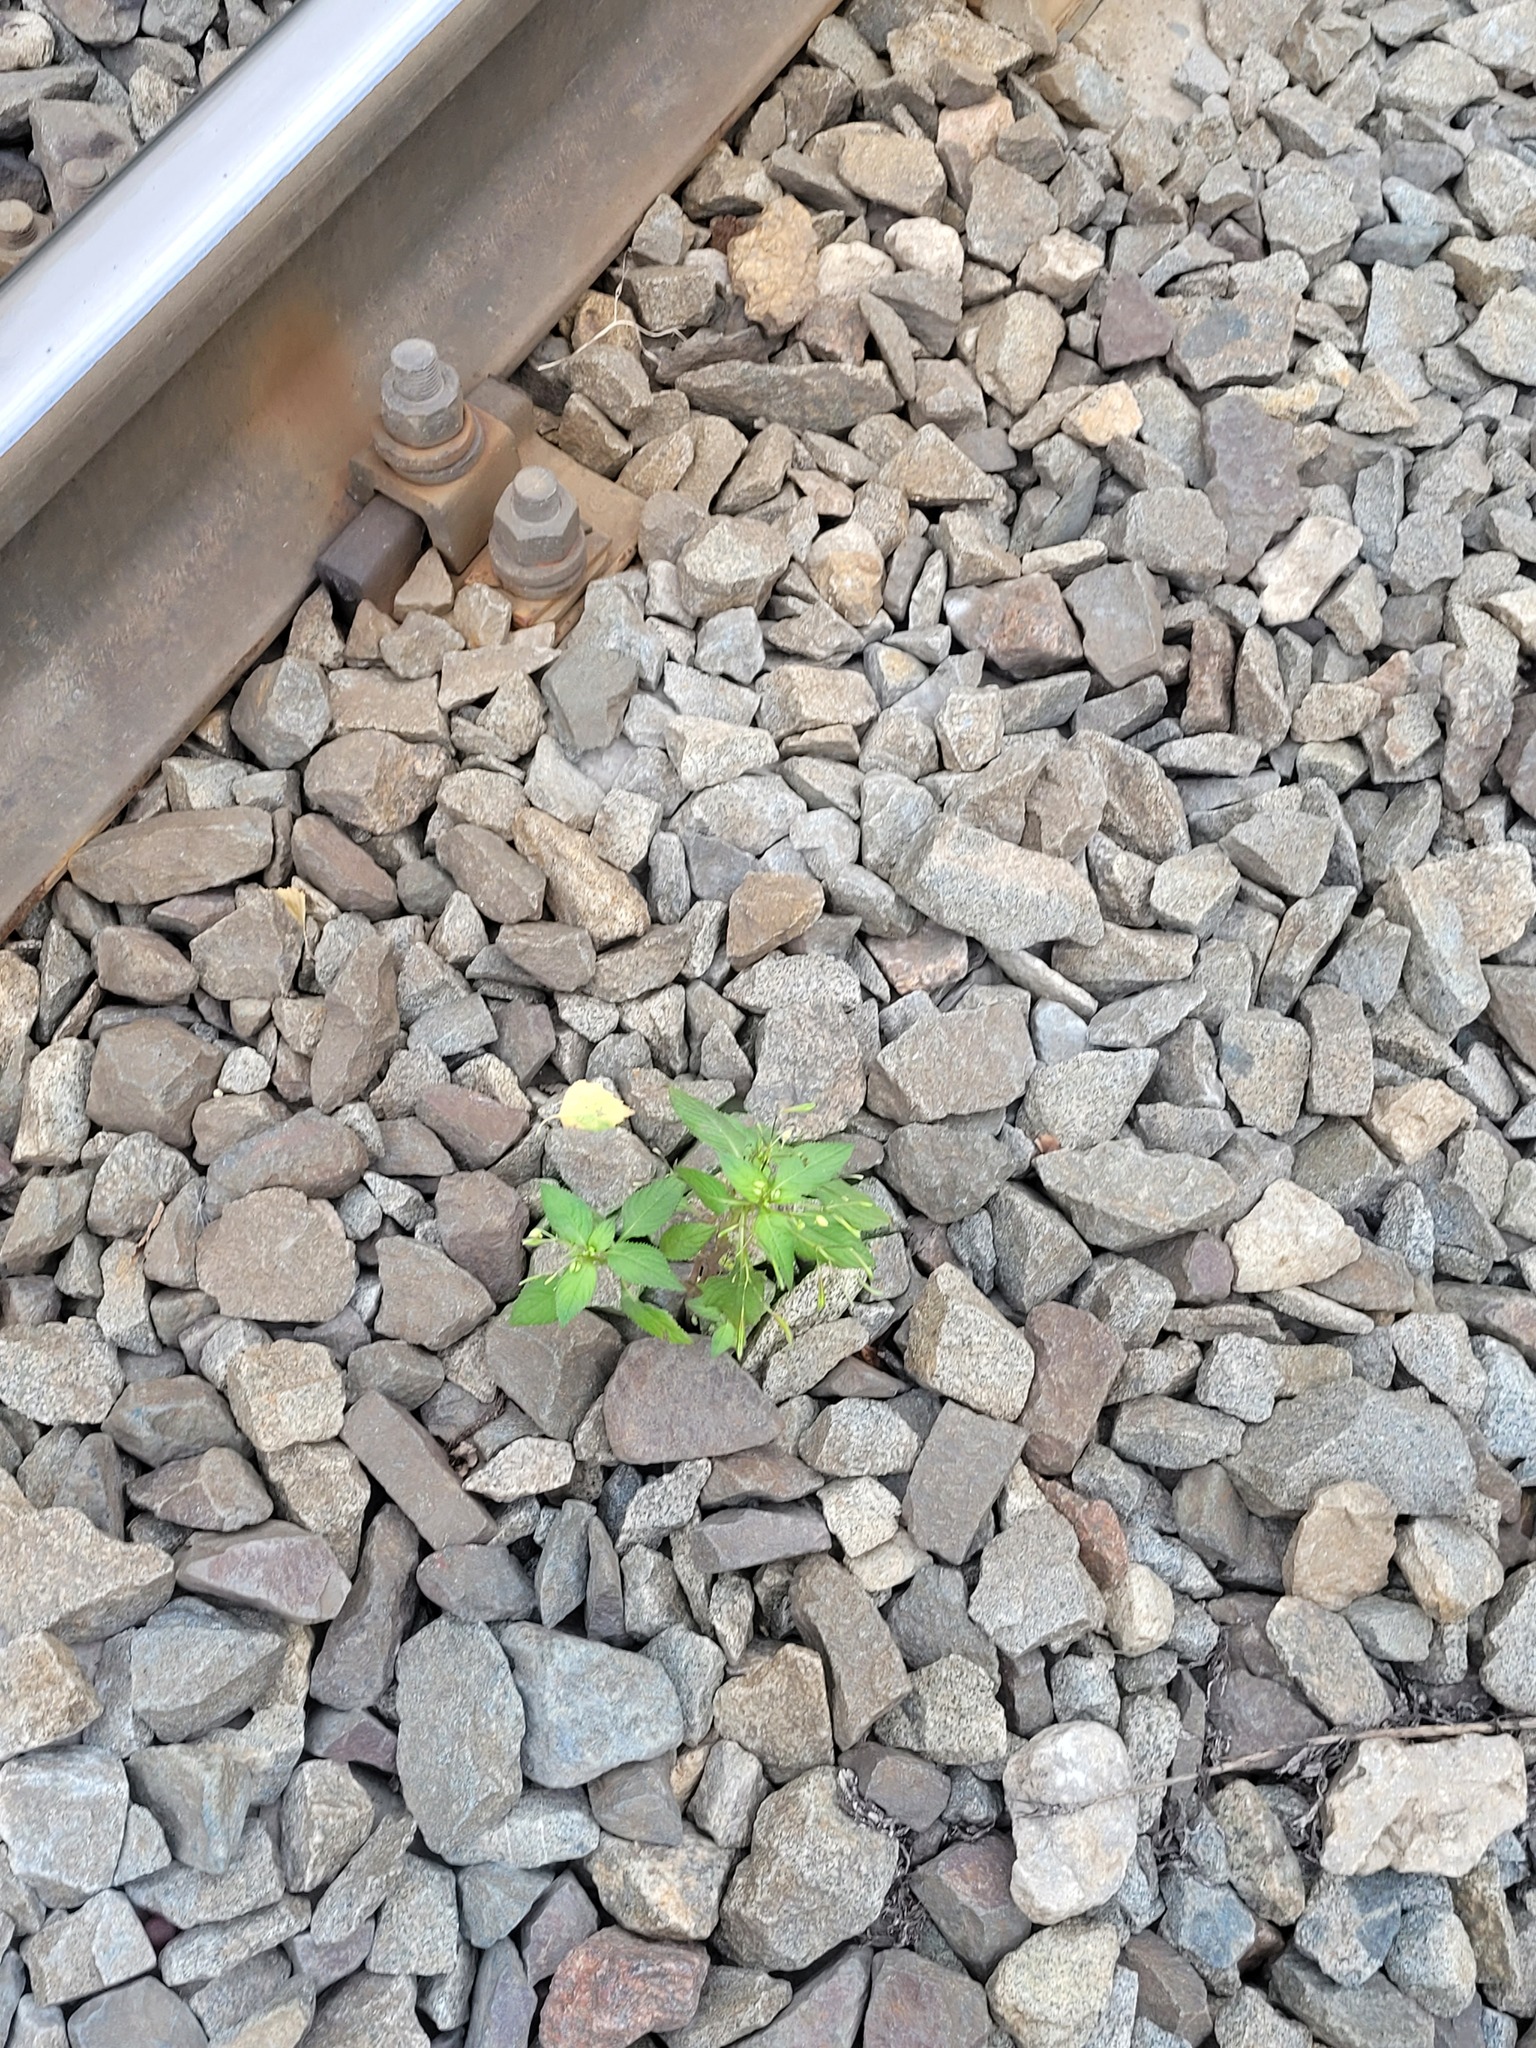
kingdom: Plantae
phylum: Tracheophyta
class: Magnoliopsida
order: Ericales
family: Balsaminaceae
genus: Impatiens
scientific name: Impatiens parviflora
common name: Small balsam
